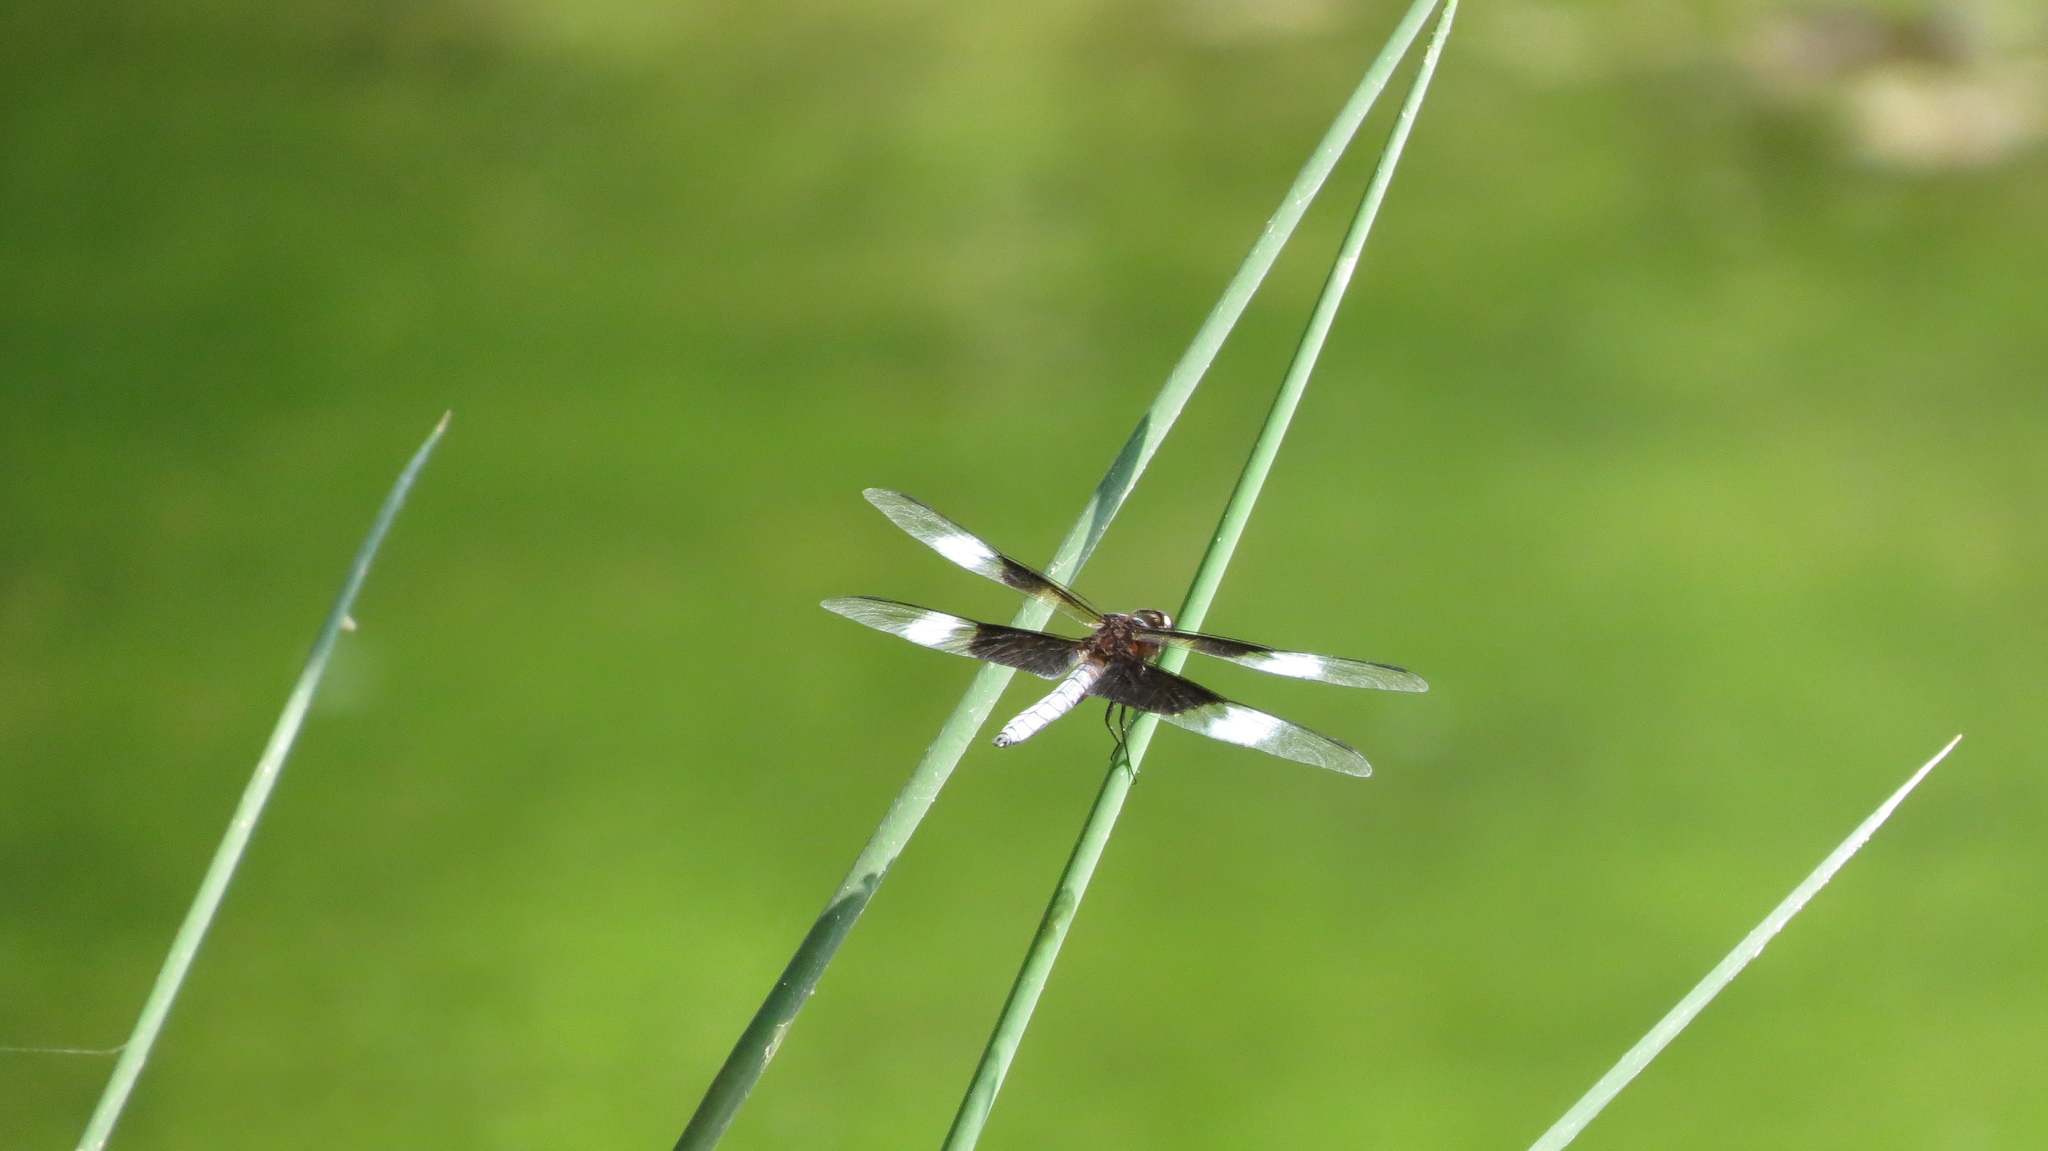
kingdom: Animalia
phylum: Arthropoda
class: Insecta
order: Odonata
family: Libellulidae
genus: Libellula
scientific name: Libellula luctuosa
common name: Widow skimmer
